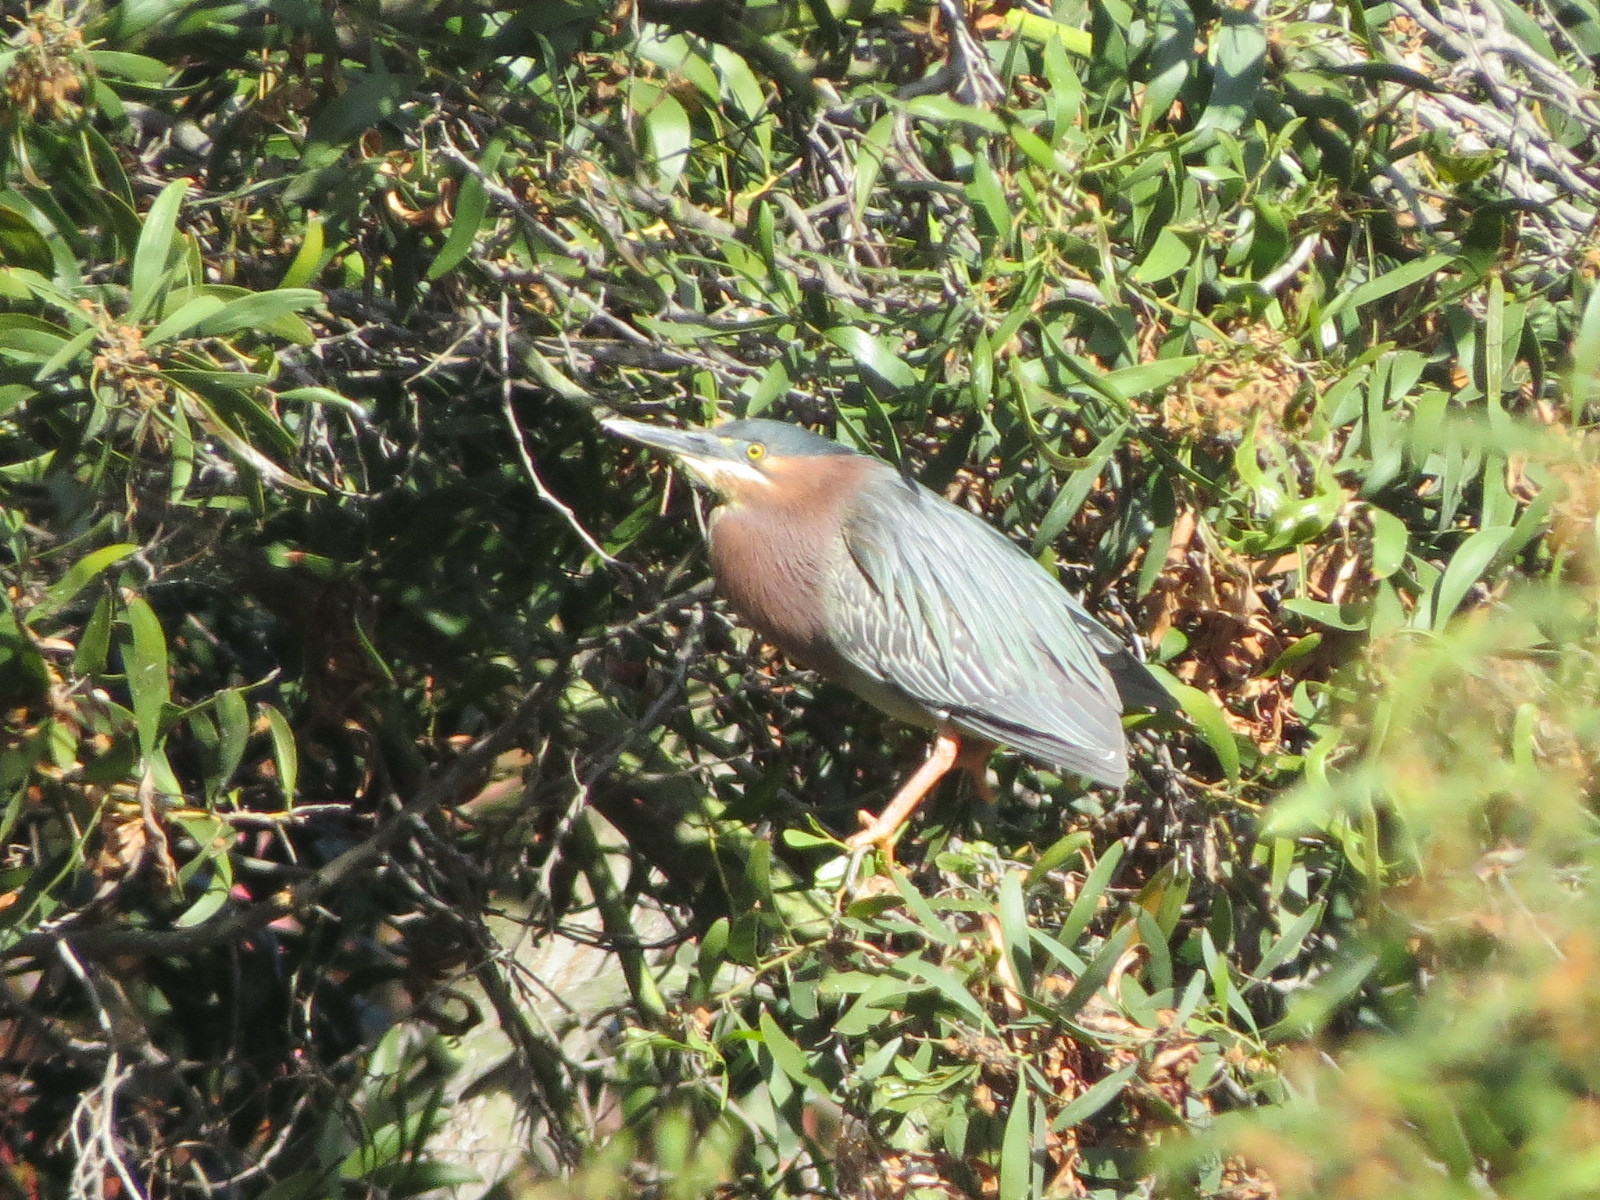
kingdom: Animalia
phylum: Chordata
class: Aves
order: Pelecaniformes
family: Ardeidae
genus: Butorides
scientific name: Butorides virescens
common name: Green heron
